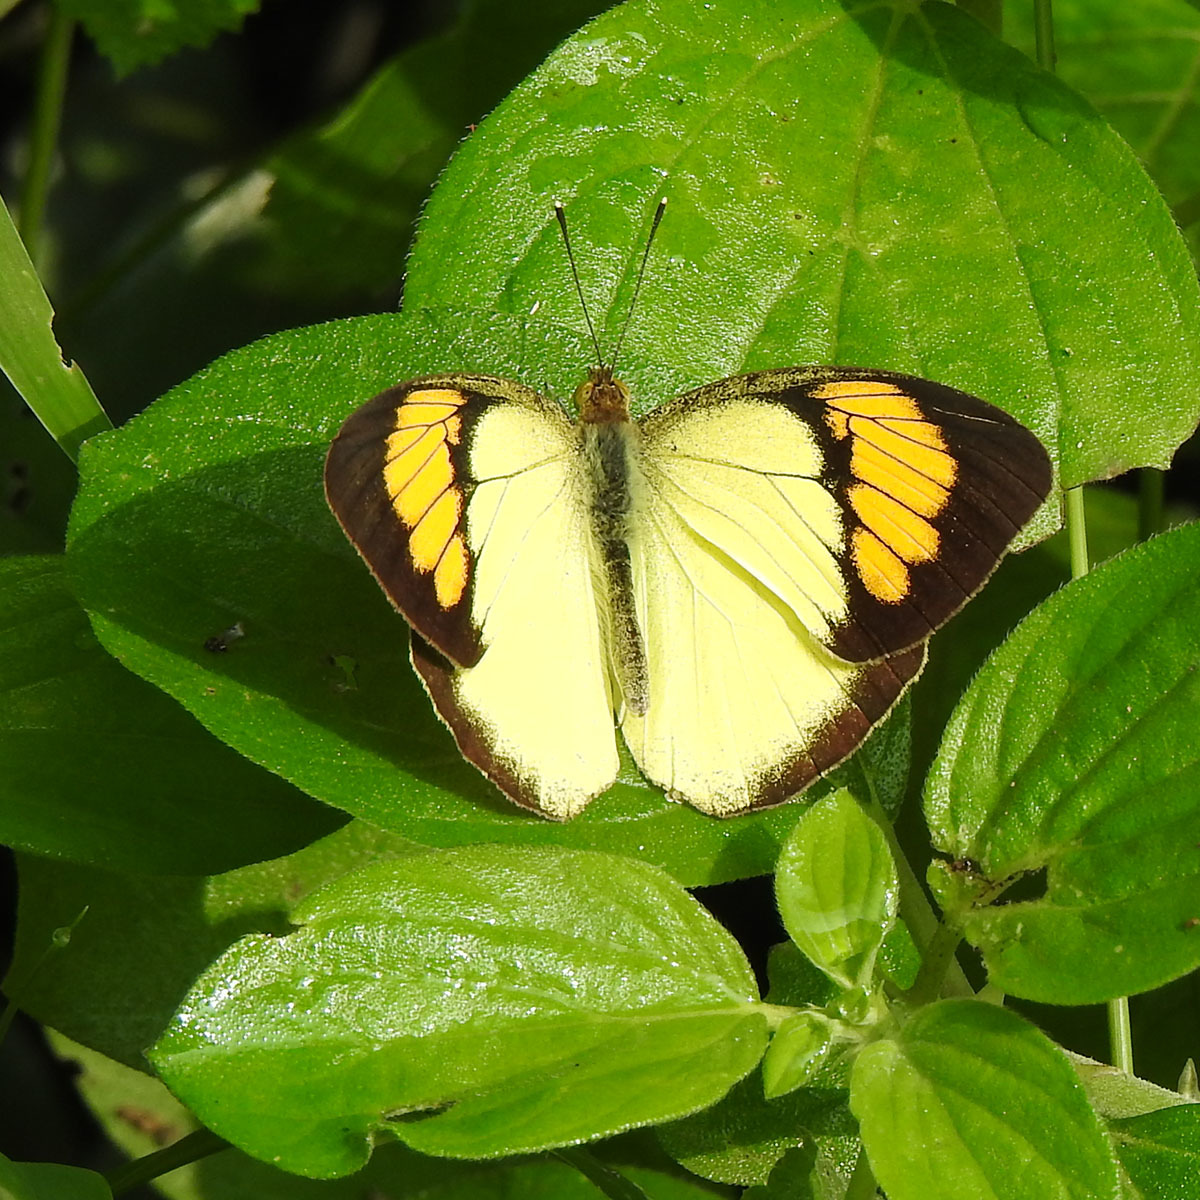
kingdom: Animalia
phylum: Arthropoda
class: Insecta
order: Lepidoptera
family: Pieridae
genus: Ixias
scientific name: Ixias pyrene
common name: Yellow orange tip
